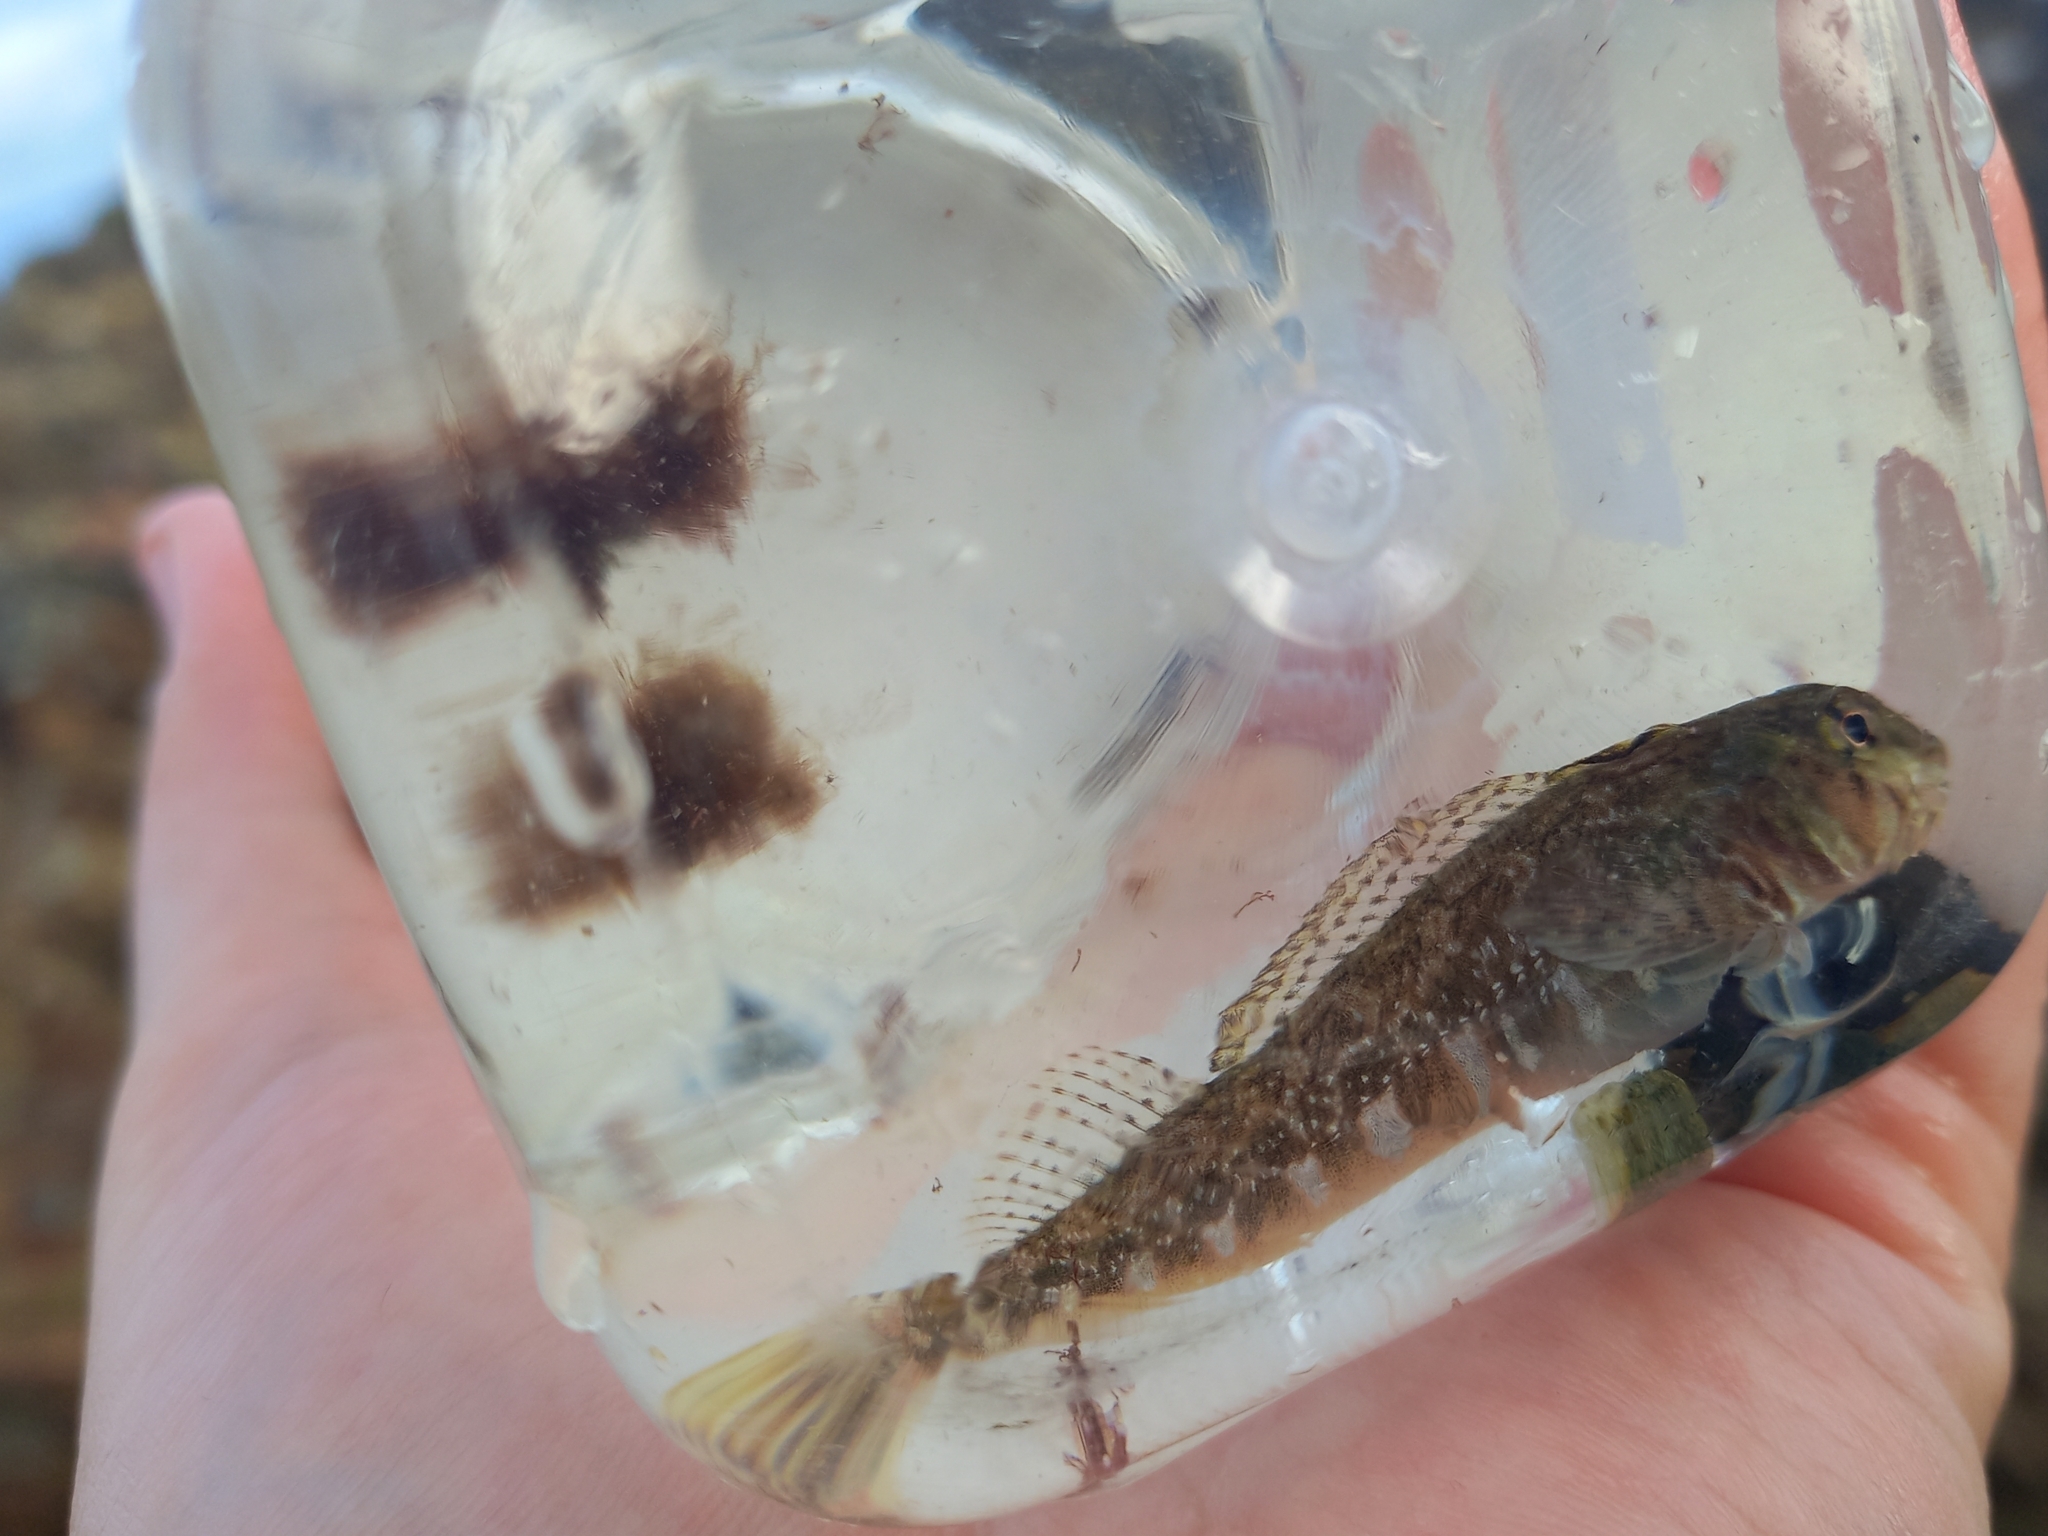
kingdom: Animalia
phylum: Chordata
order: Perciformes
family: Tripterygiidae
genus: Bellapiscis
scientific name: Bellapiscis medius
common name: Twister
